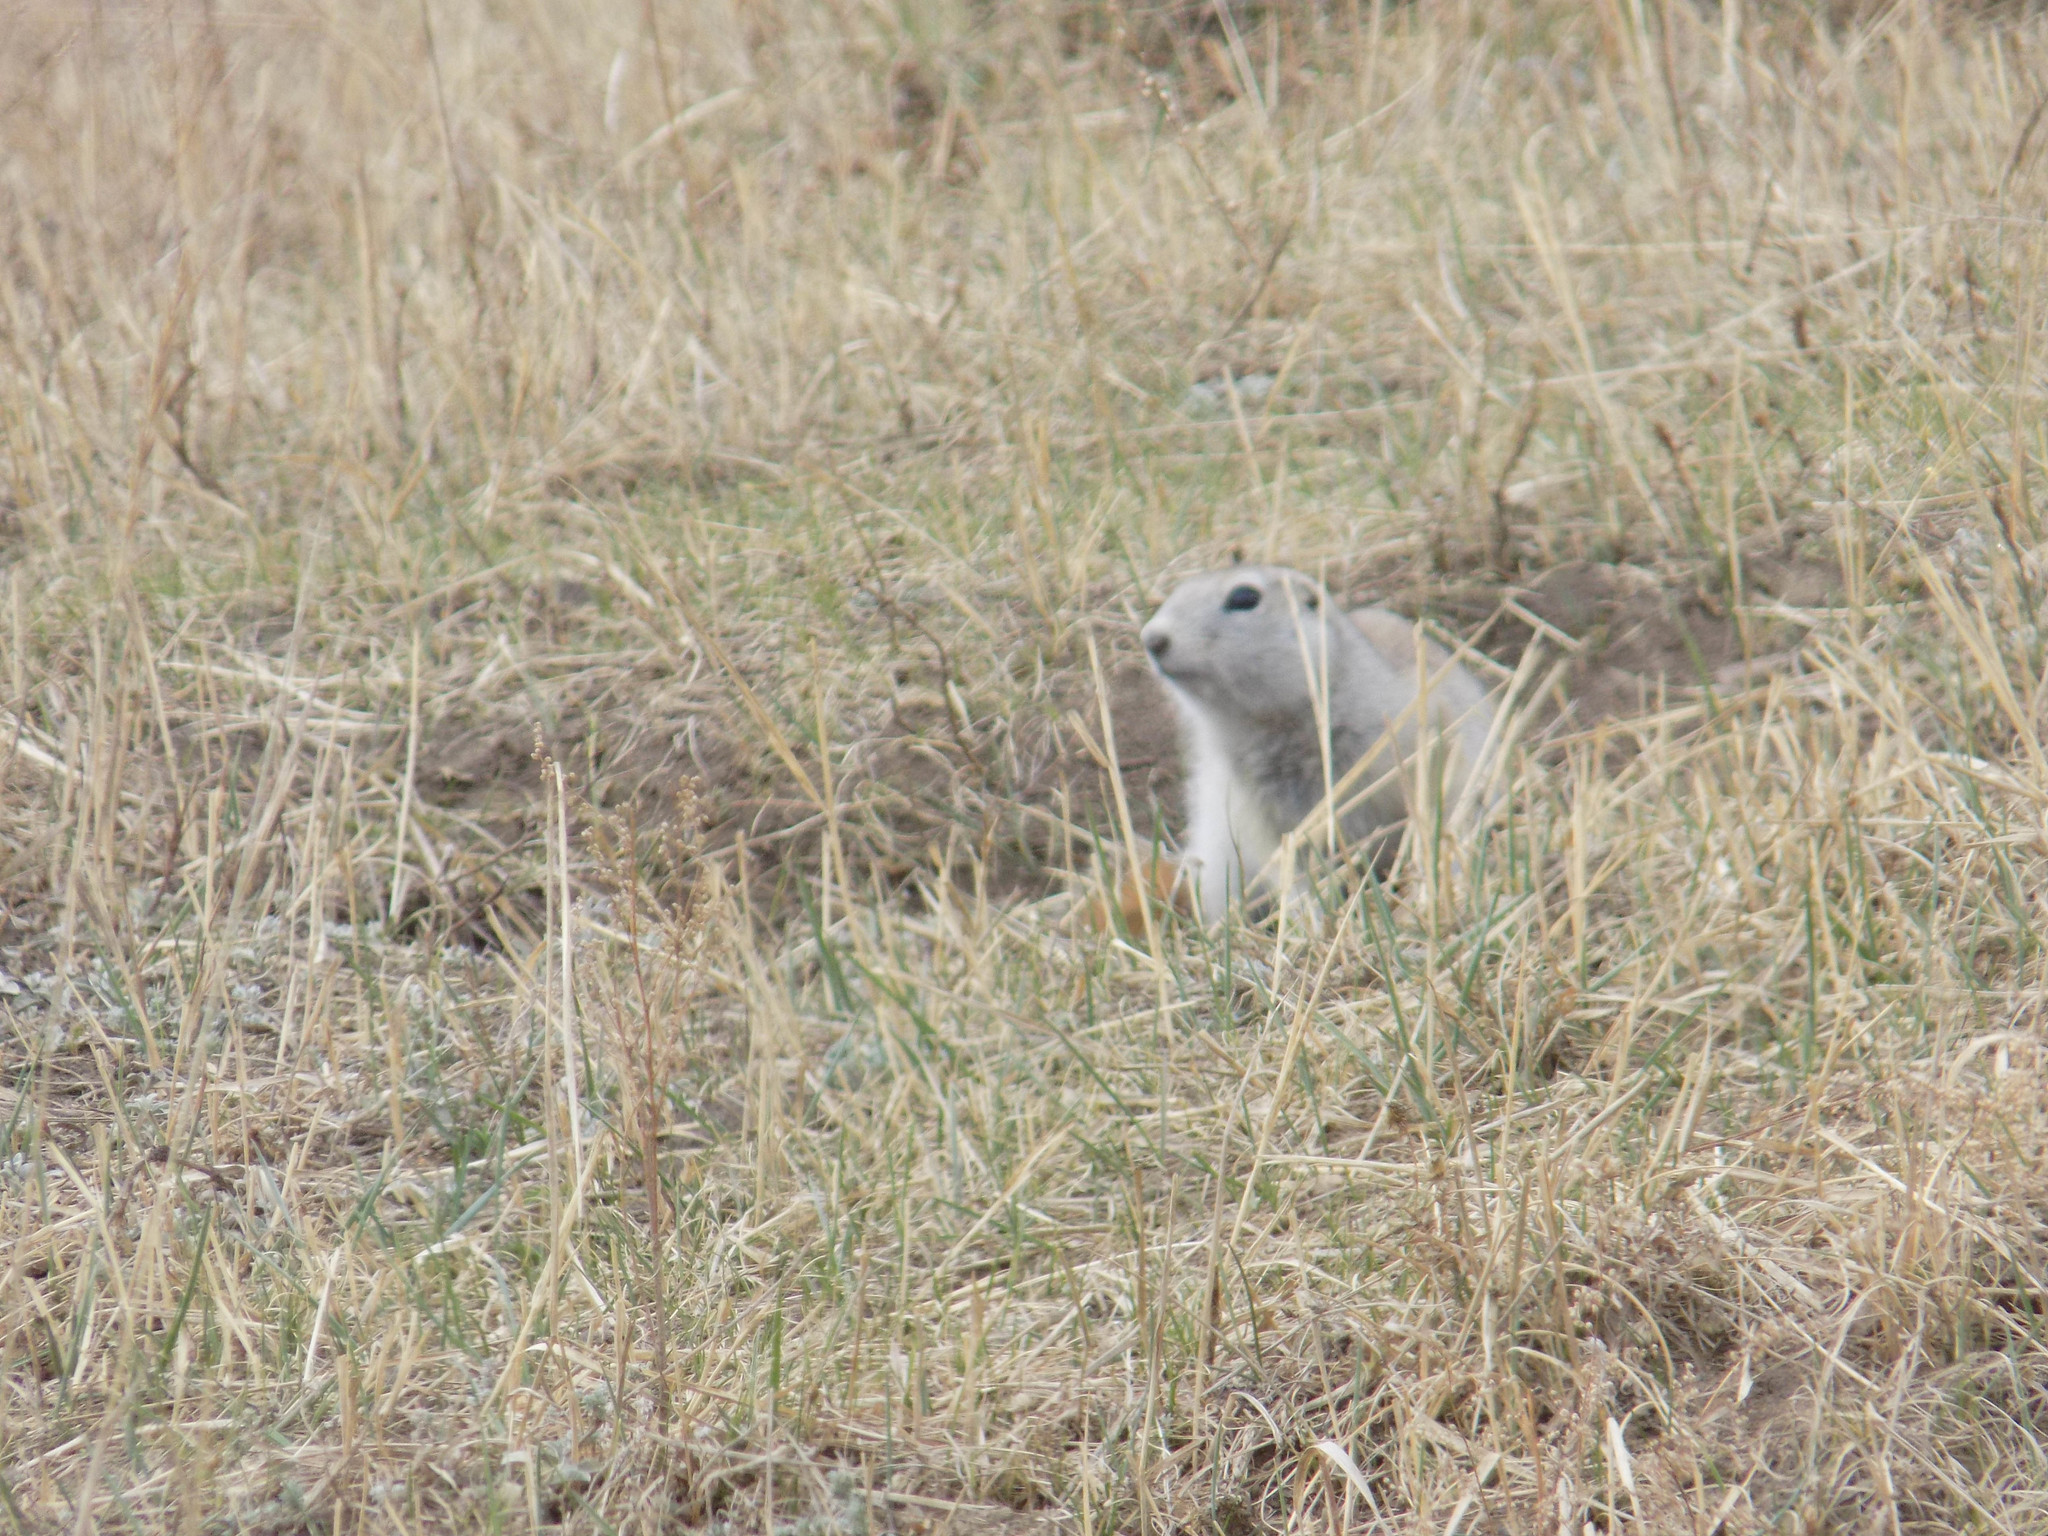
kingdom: Animalia
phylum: Chordata
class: Mammalia
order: Rodentia
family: Sciuridae
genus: Urocitellus
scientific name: Urocitellus undulatus
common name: Long-tailed ground squirrel
